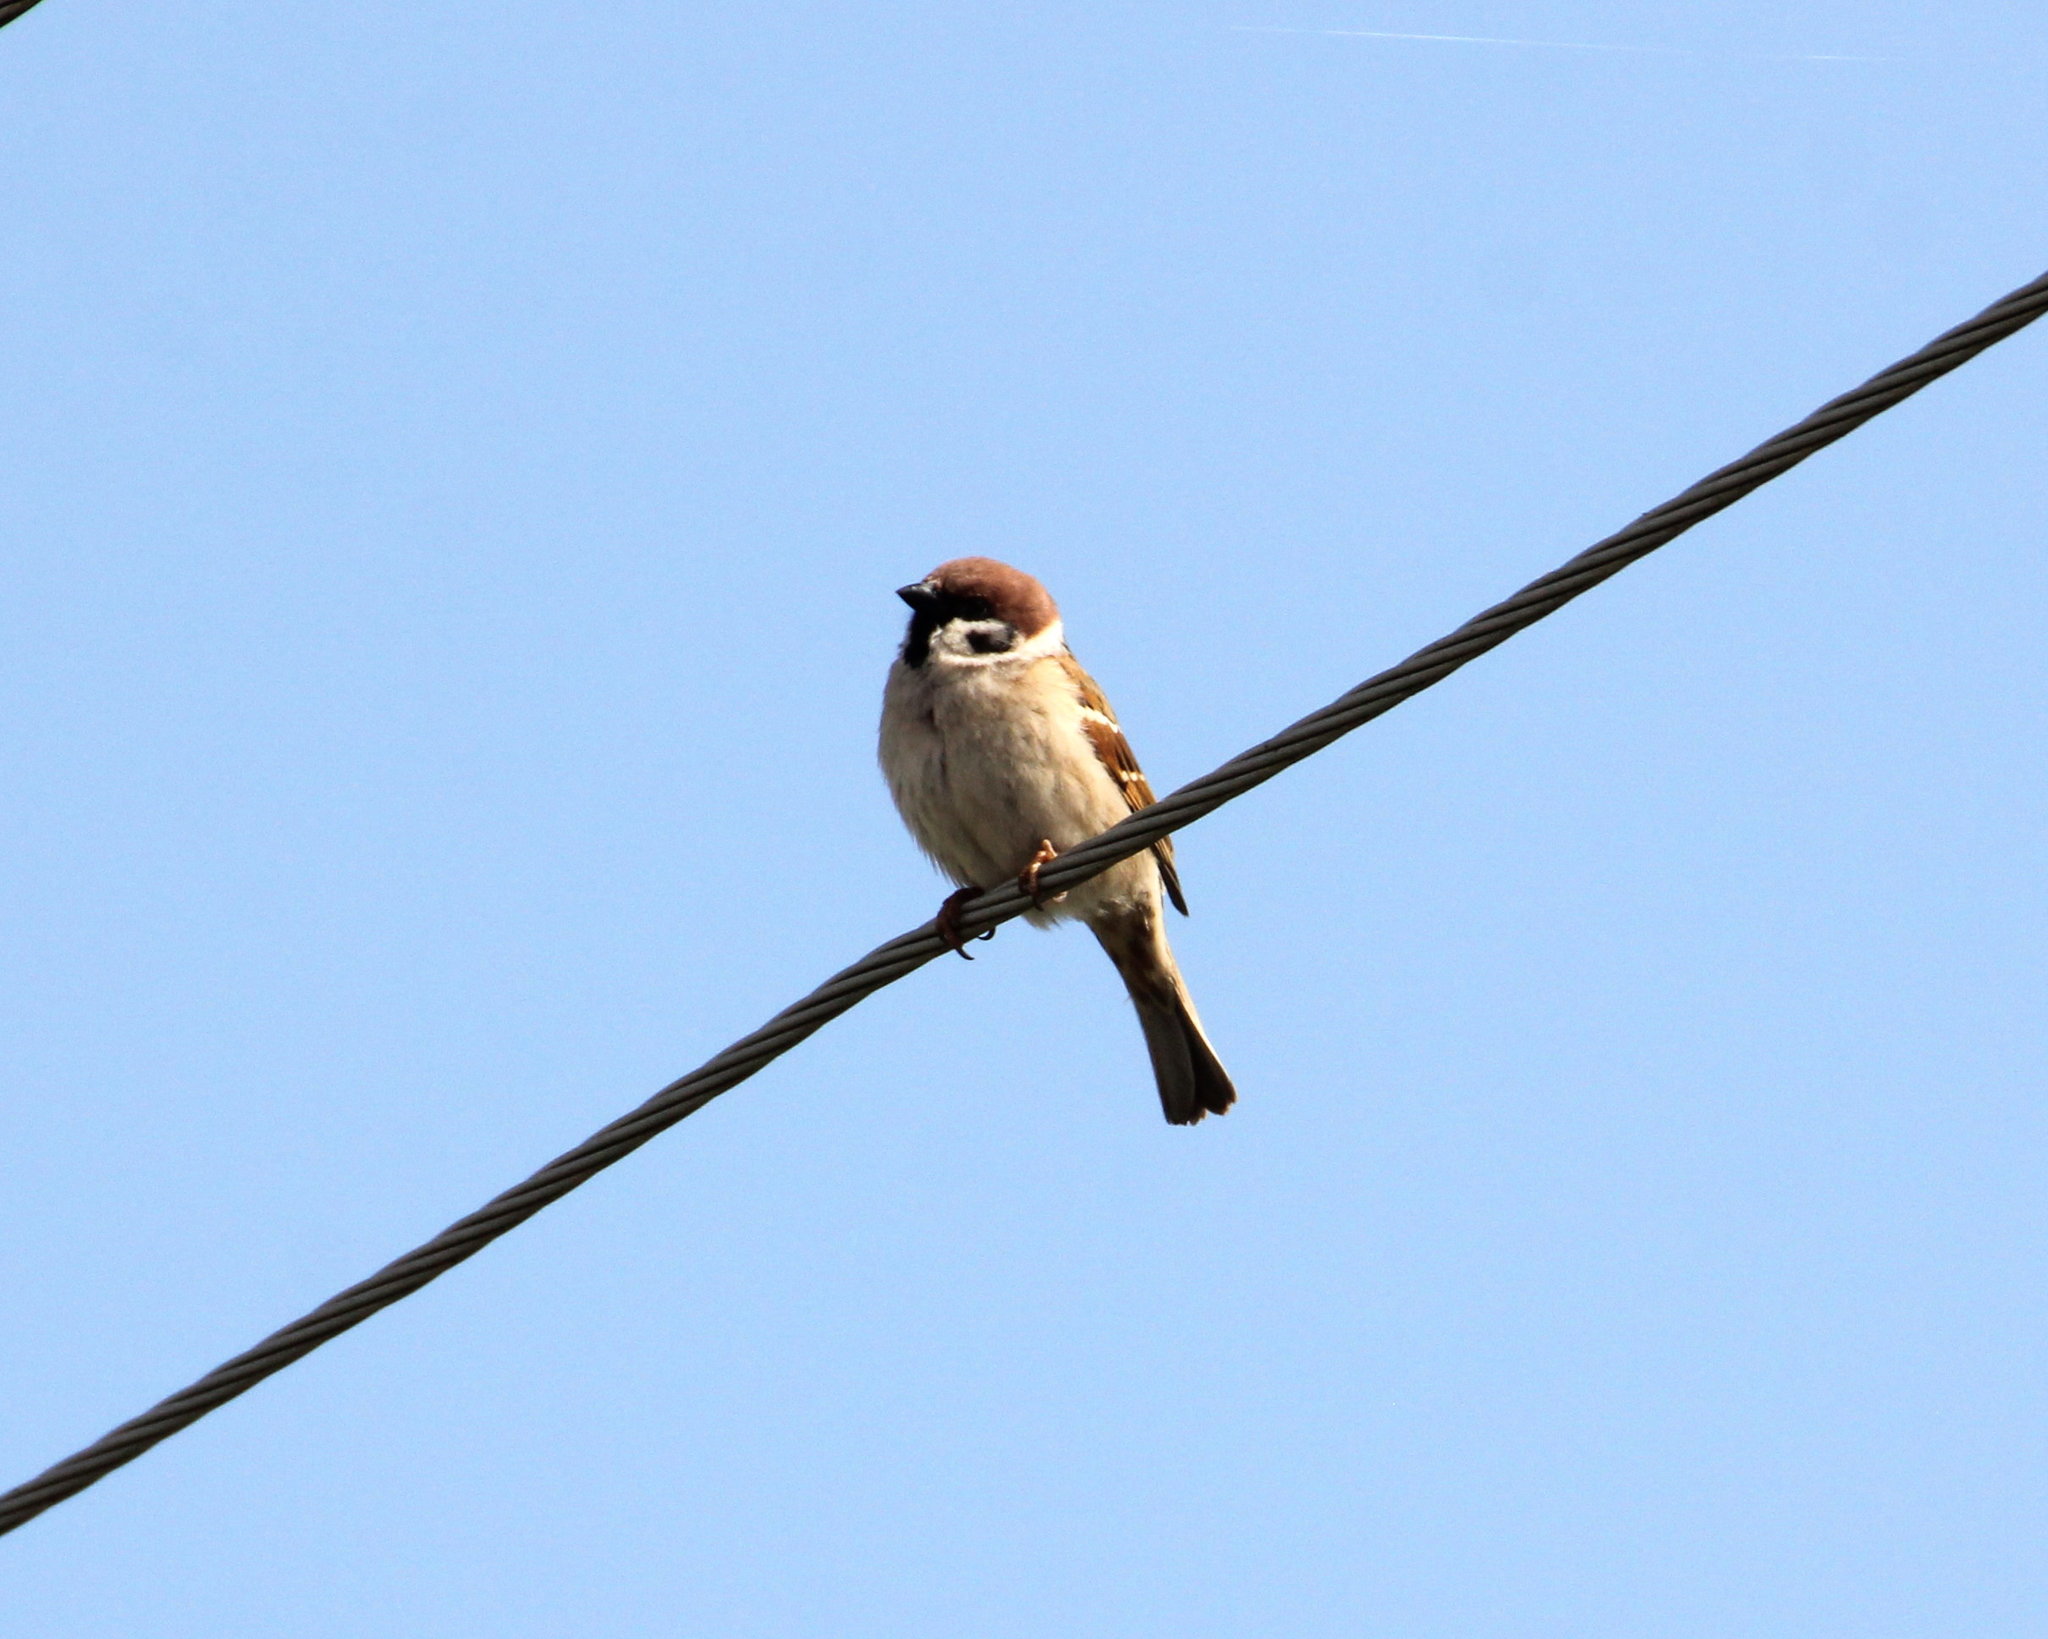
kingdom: Animalia
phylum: Chordata
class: Aves
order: Passeriformes
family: Passeridae
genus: Passer
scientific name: Passer montanus
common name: Eurasian tree sparrow
